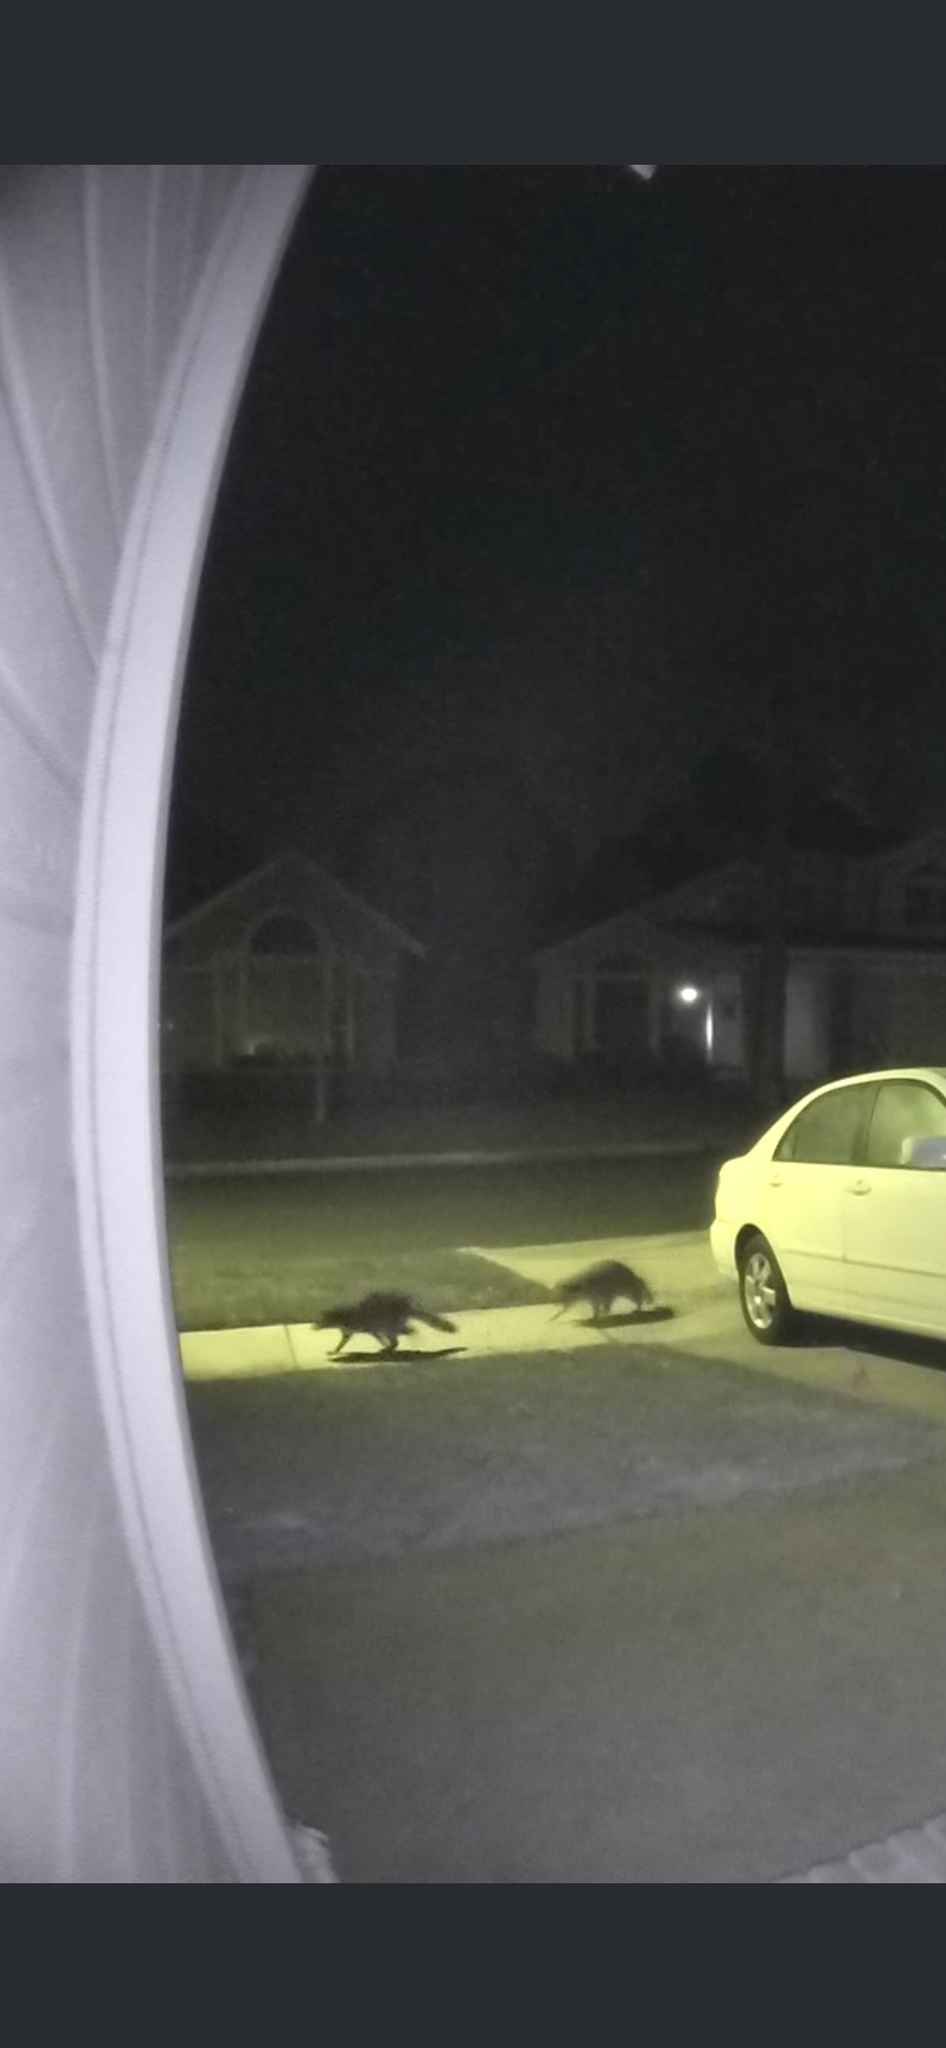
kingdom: Animalia
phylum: Chordata
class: Mammalia
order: Carnivora
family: Procyonidae
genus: Procyon
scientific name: Procyon lotor
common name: Raccoon
